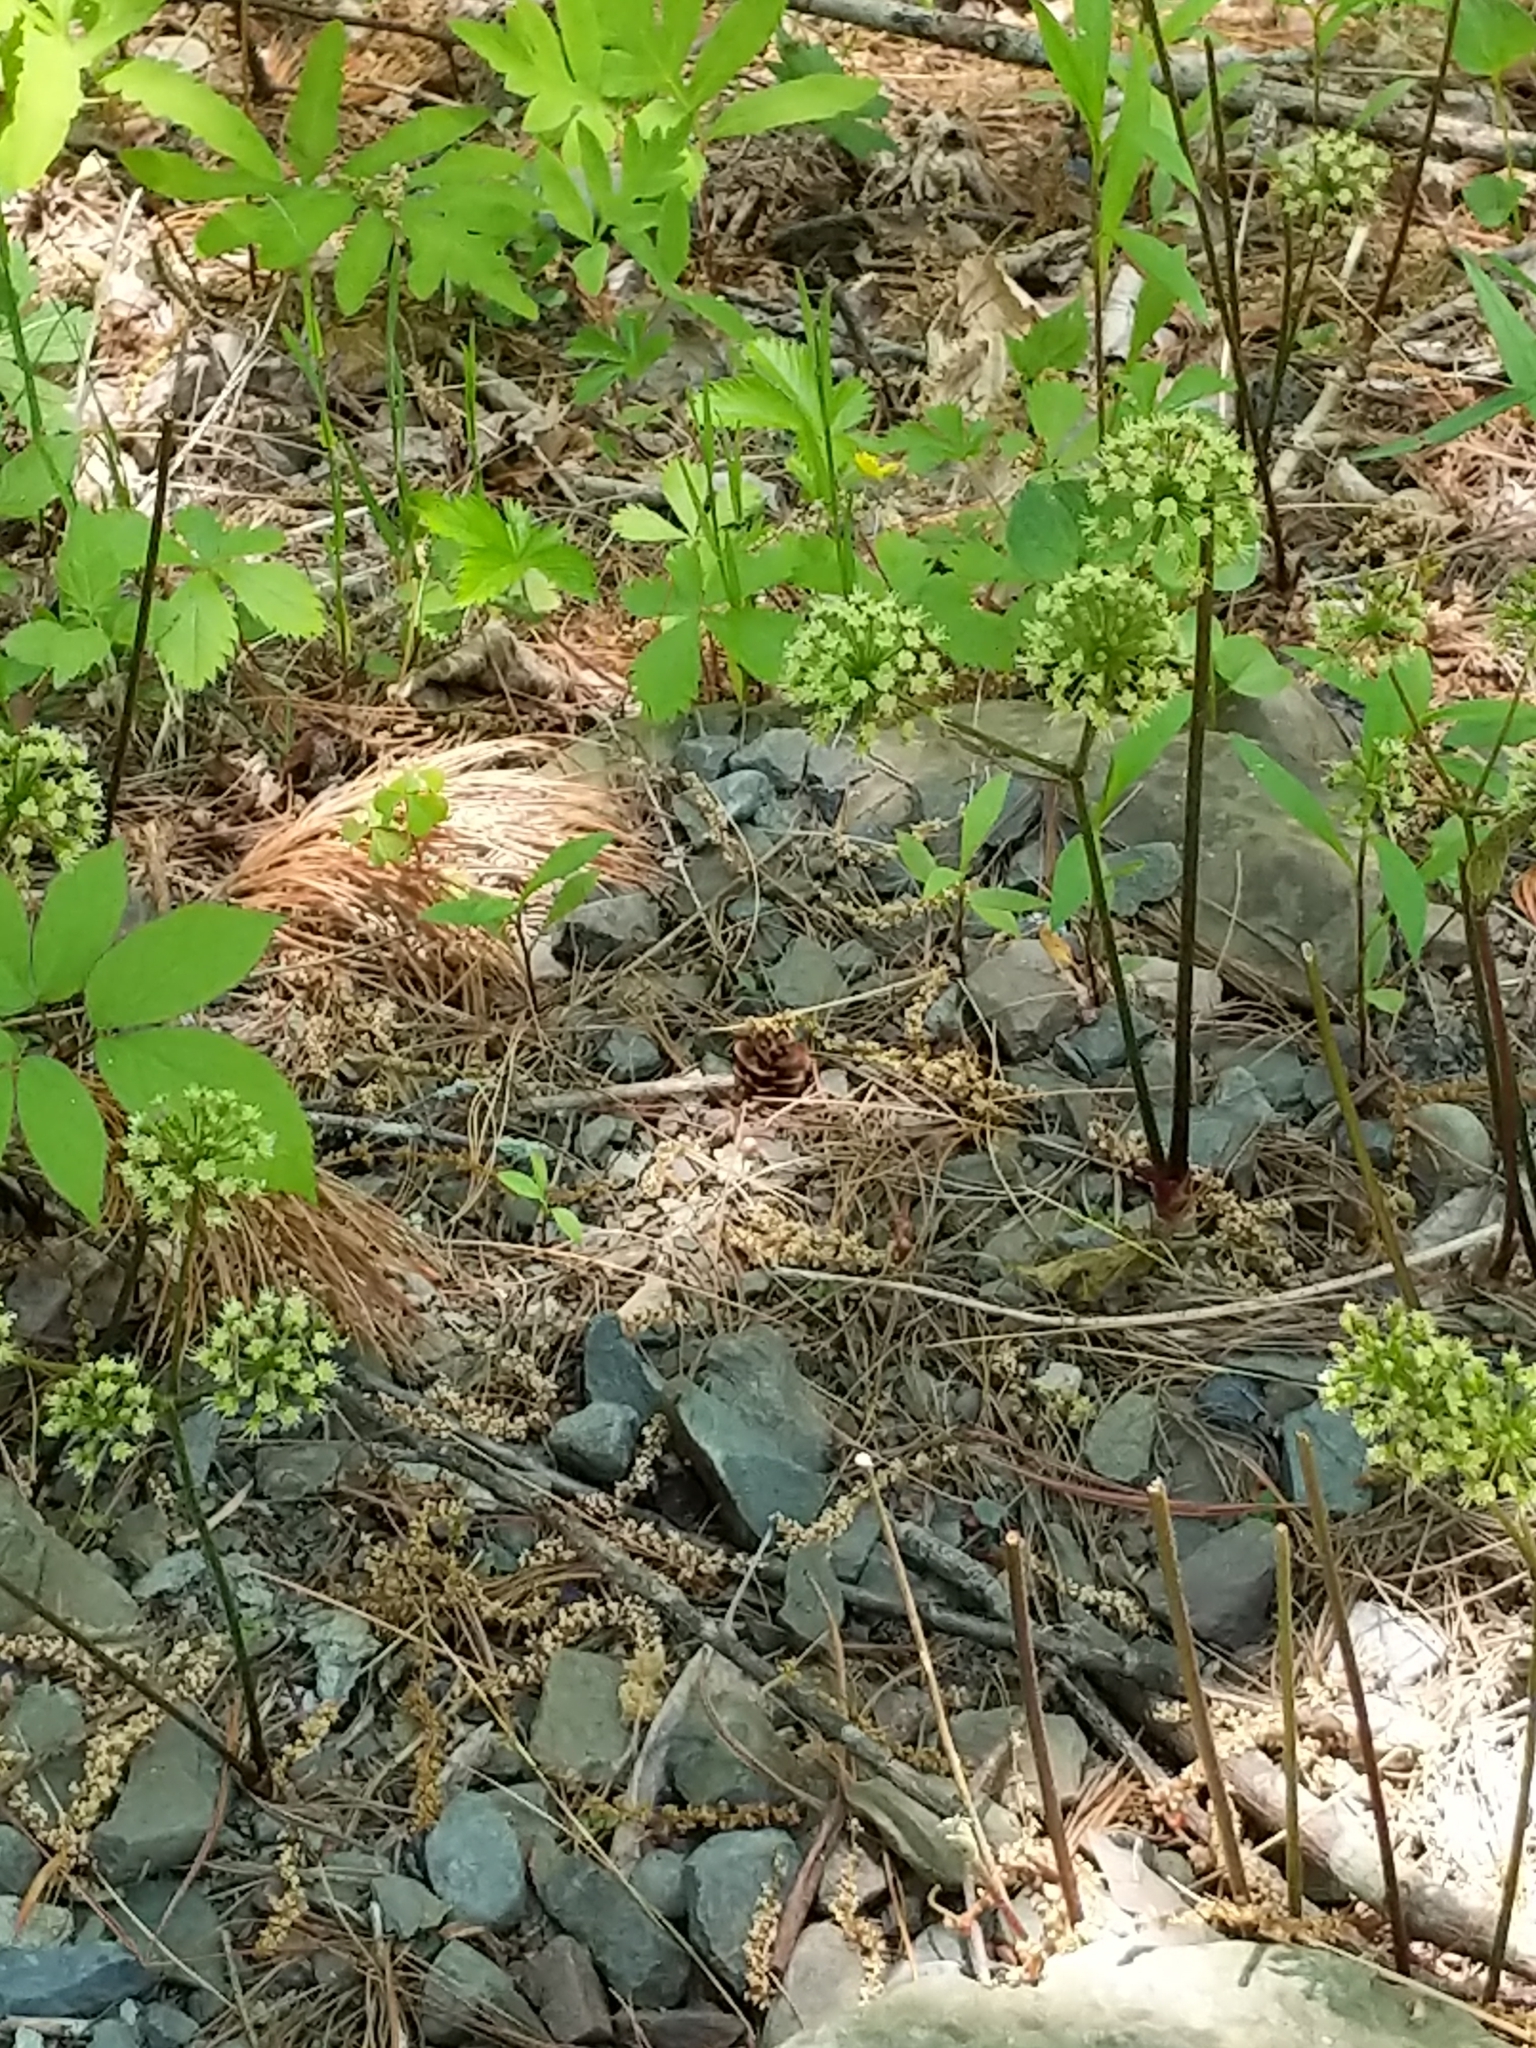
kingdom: Plantae
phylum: Tracheophyta
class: Magnoliopsida
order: Apiales
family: Araliaceae
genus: Aralia
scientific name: Aralia nudicaulis
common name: Wild sarsaparilla
